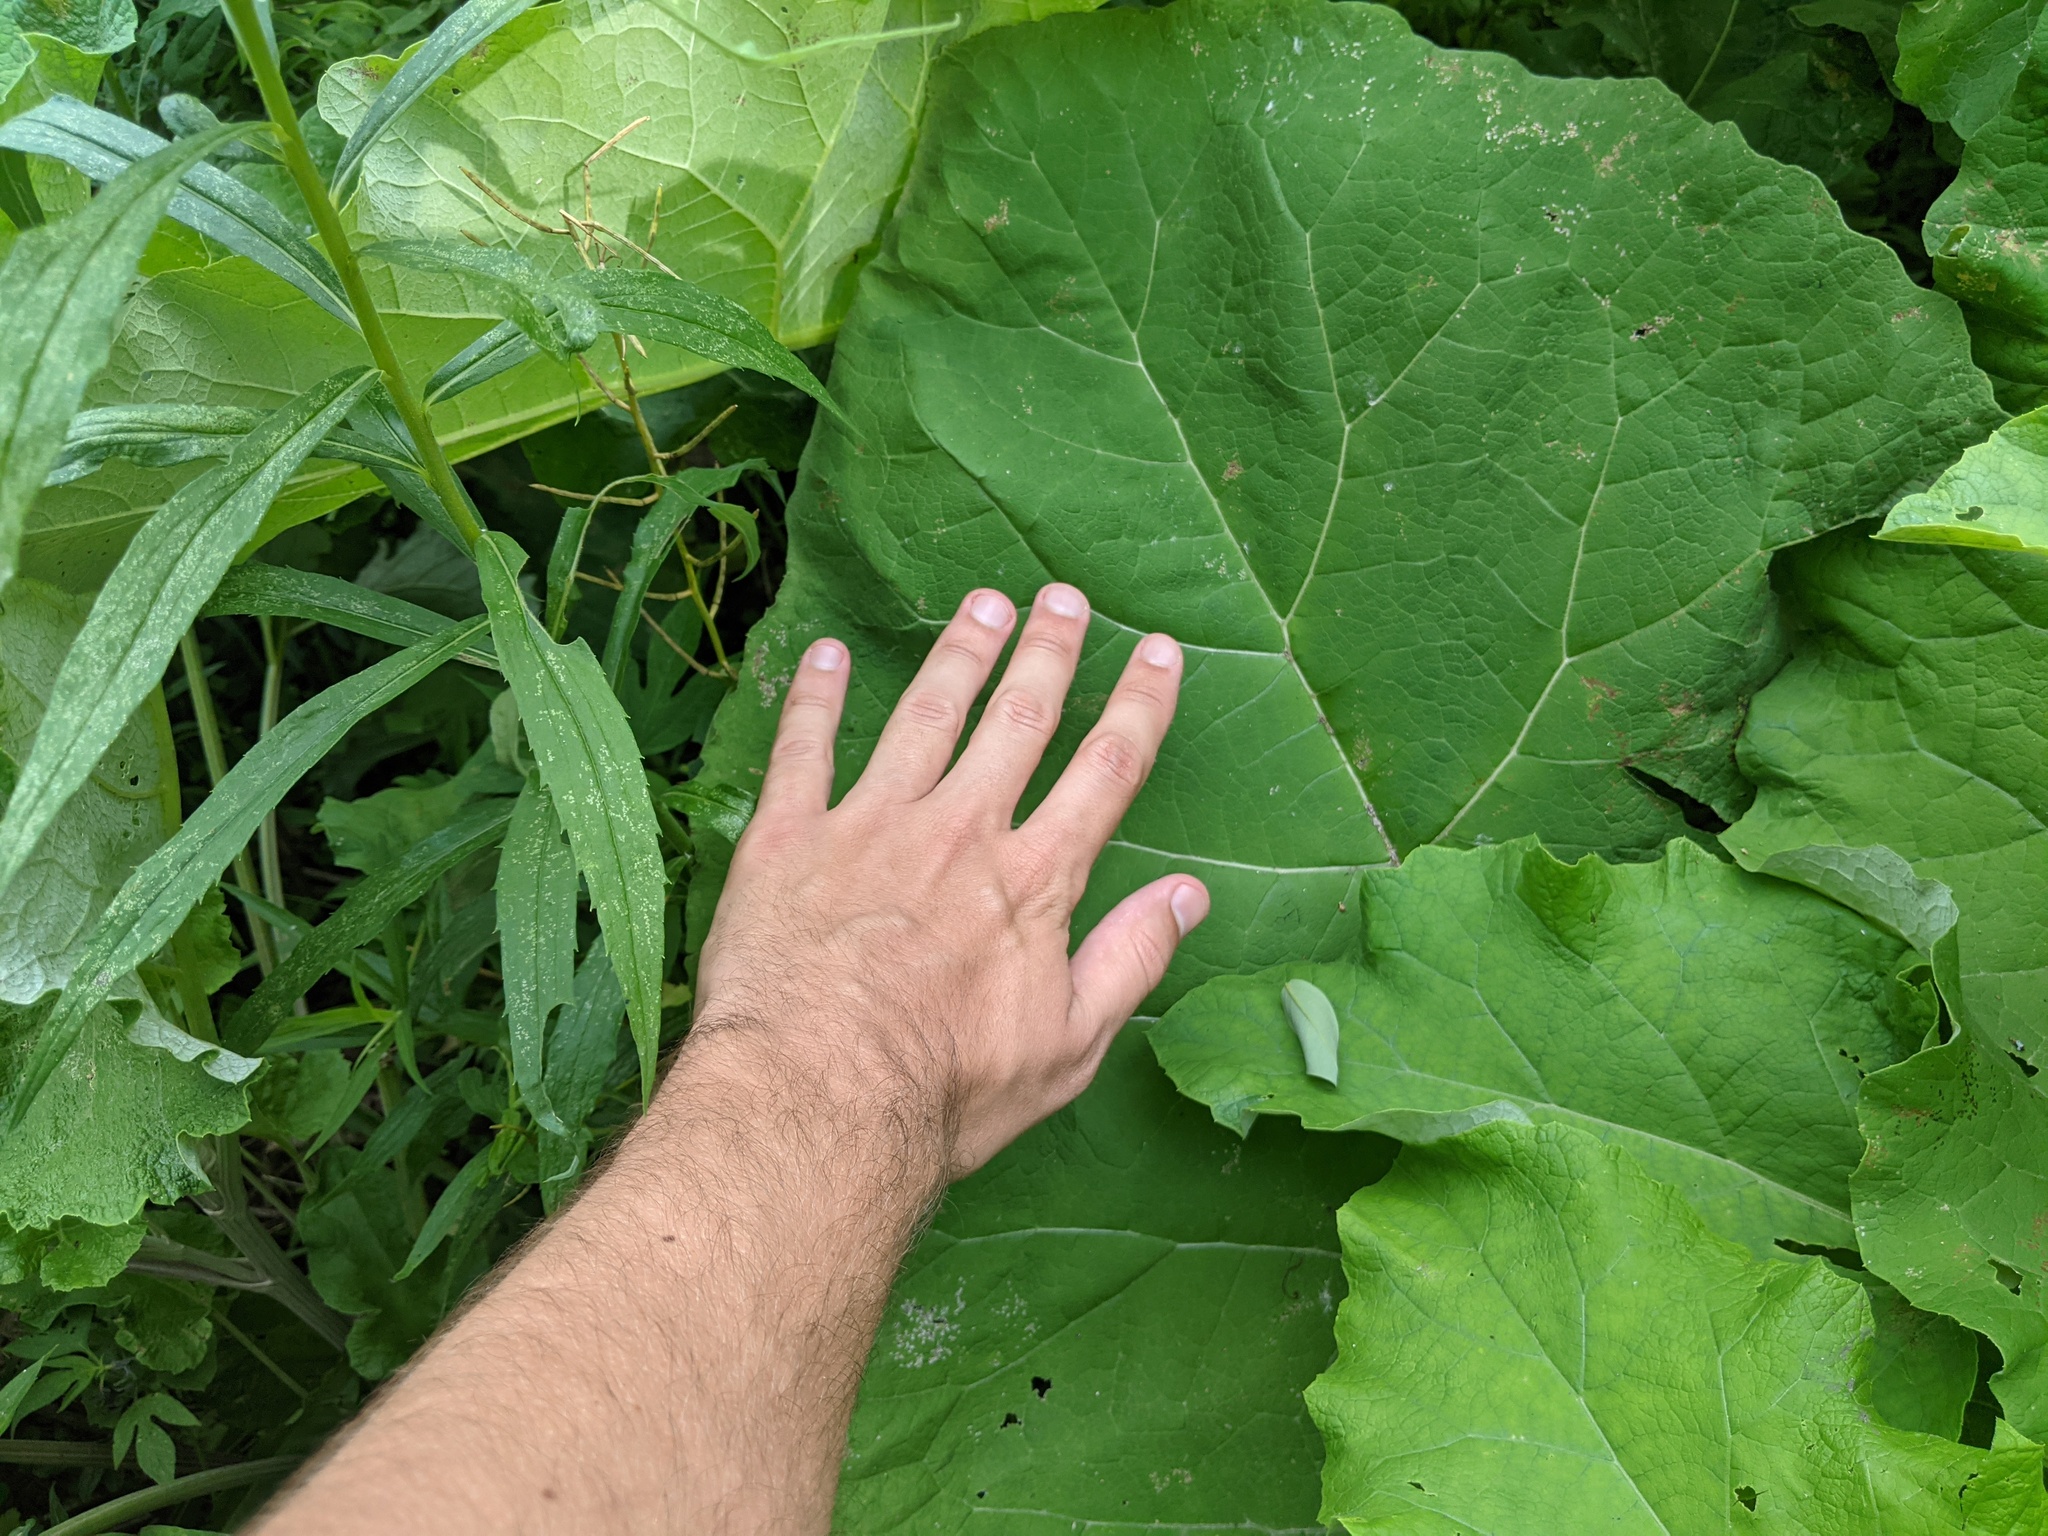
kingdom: Plantae
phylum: Tracheophyta
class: Magnoliopsida
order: Asterales
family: Asteraceae
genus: Arctium
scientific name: Arctium
